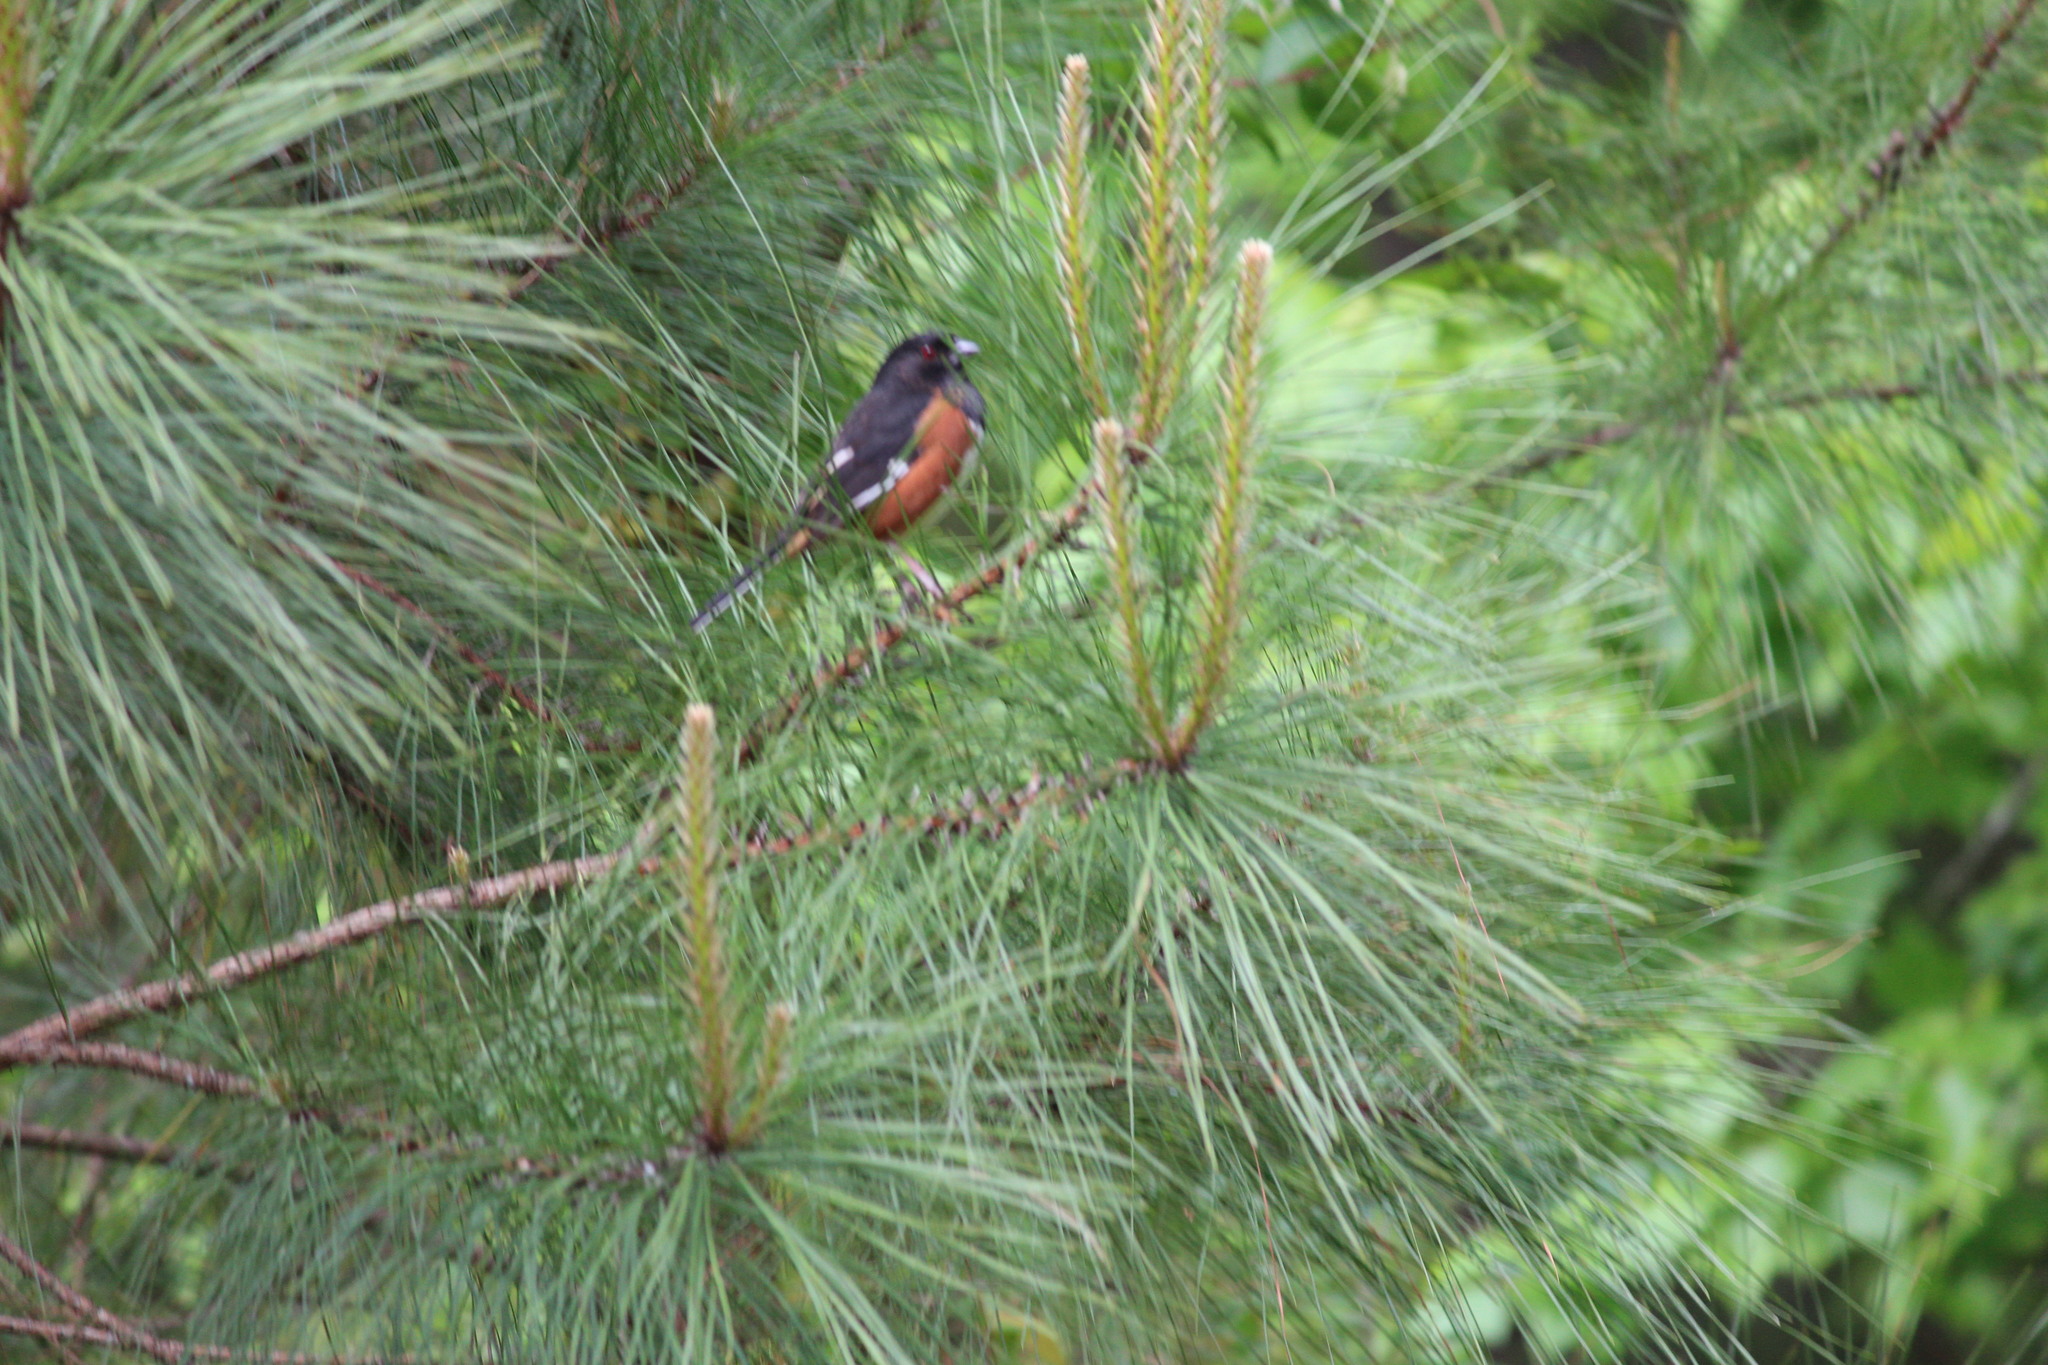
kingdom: Animalia
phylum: Chordata
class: Aves
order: Passeriformes
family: Passerellidae
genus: Pipilo
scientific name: Pipilo erythrophthalmus
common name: Eastern towhee
